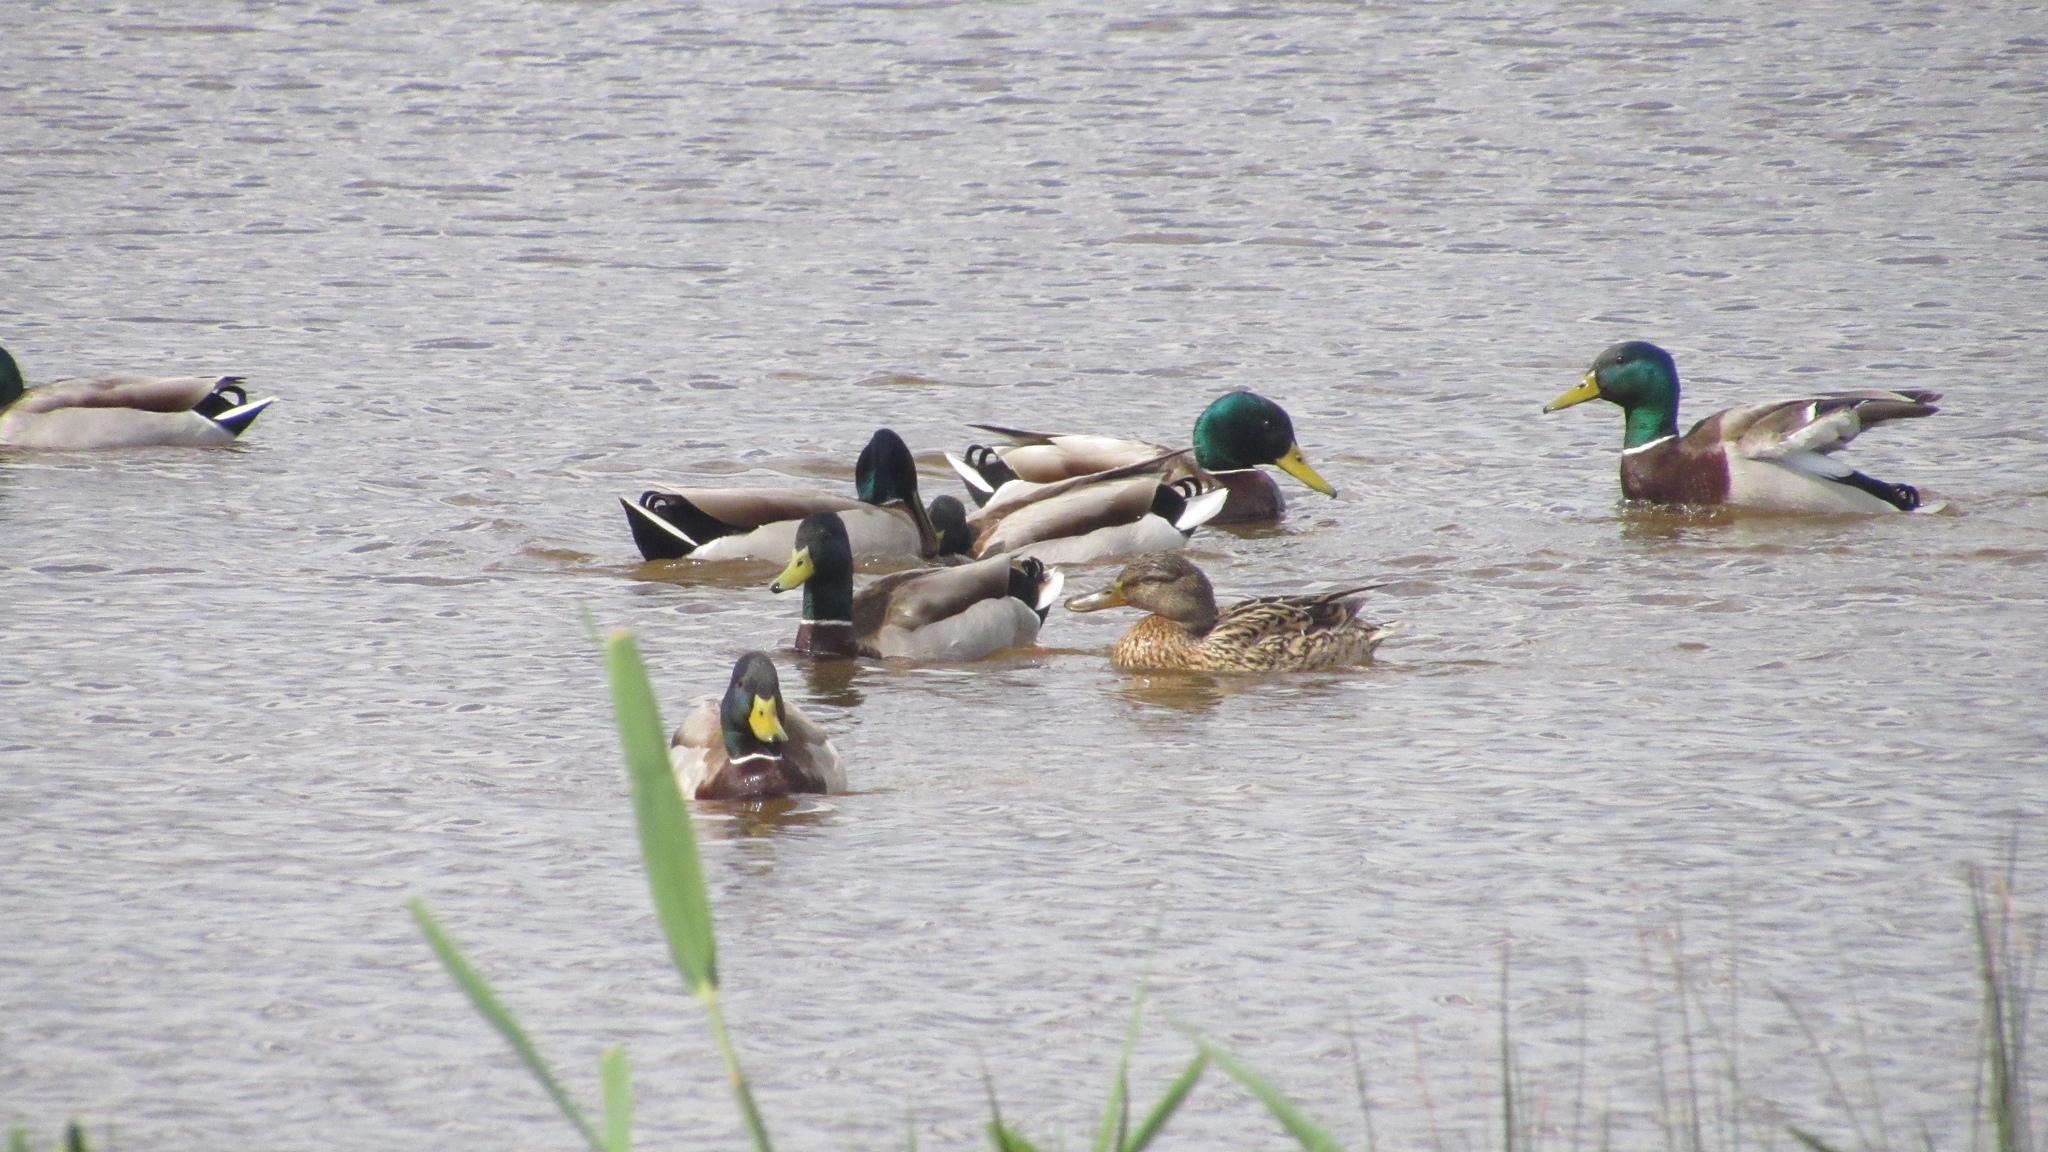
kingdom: Animalia
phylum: Chordata
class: Aves
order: Anseriformes
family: Anatidae
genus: Anas
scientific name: Anas platyrhynchos
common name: Mallard
